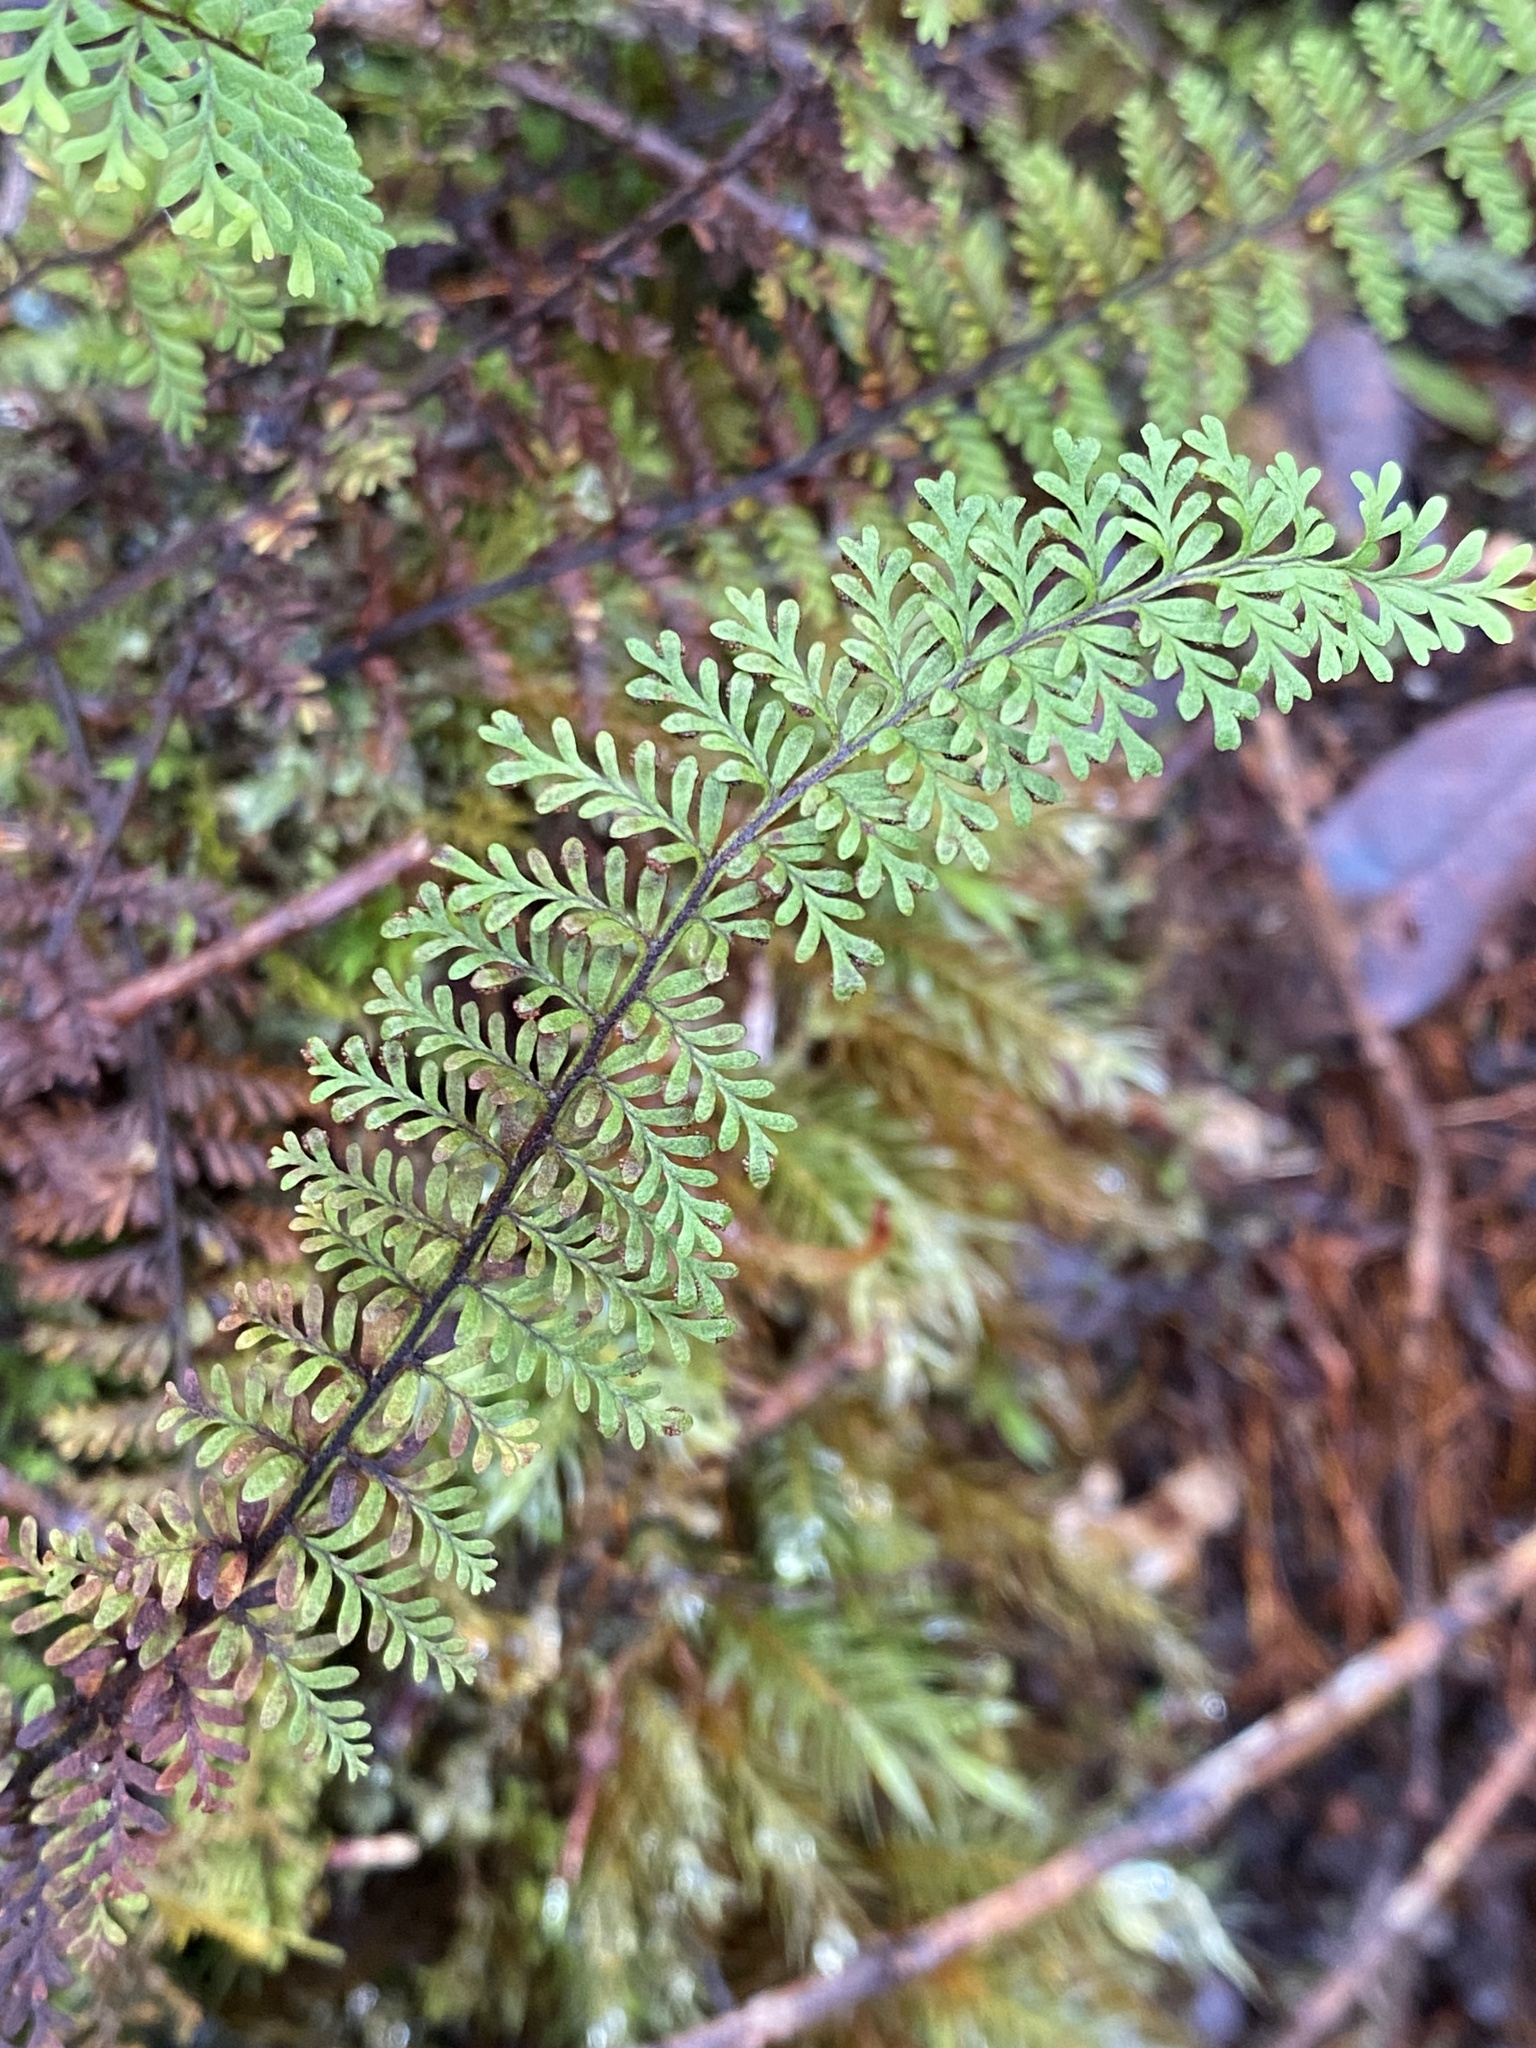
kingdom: Plantae
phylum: Tracheophyta
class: Polypodiopsida
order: Polypodiales
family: Polypodiaceae
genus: Adenophorus
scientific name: Adenophorus tamariscinus
